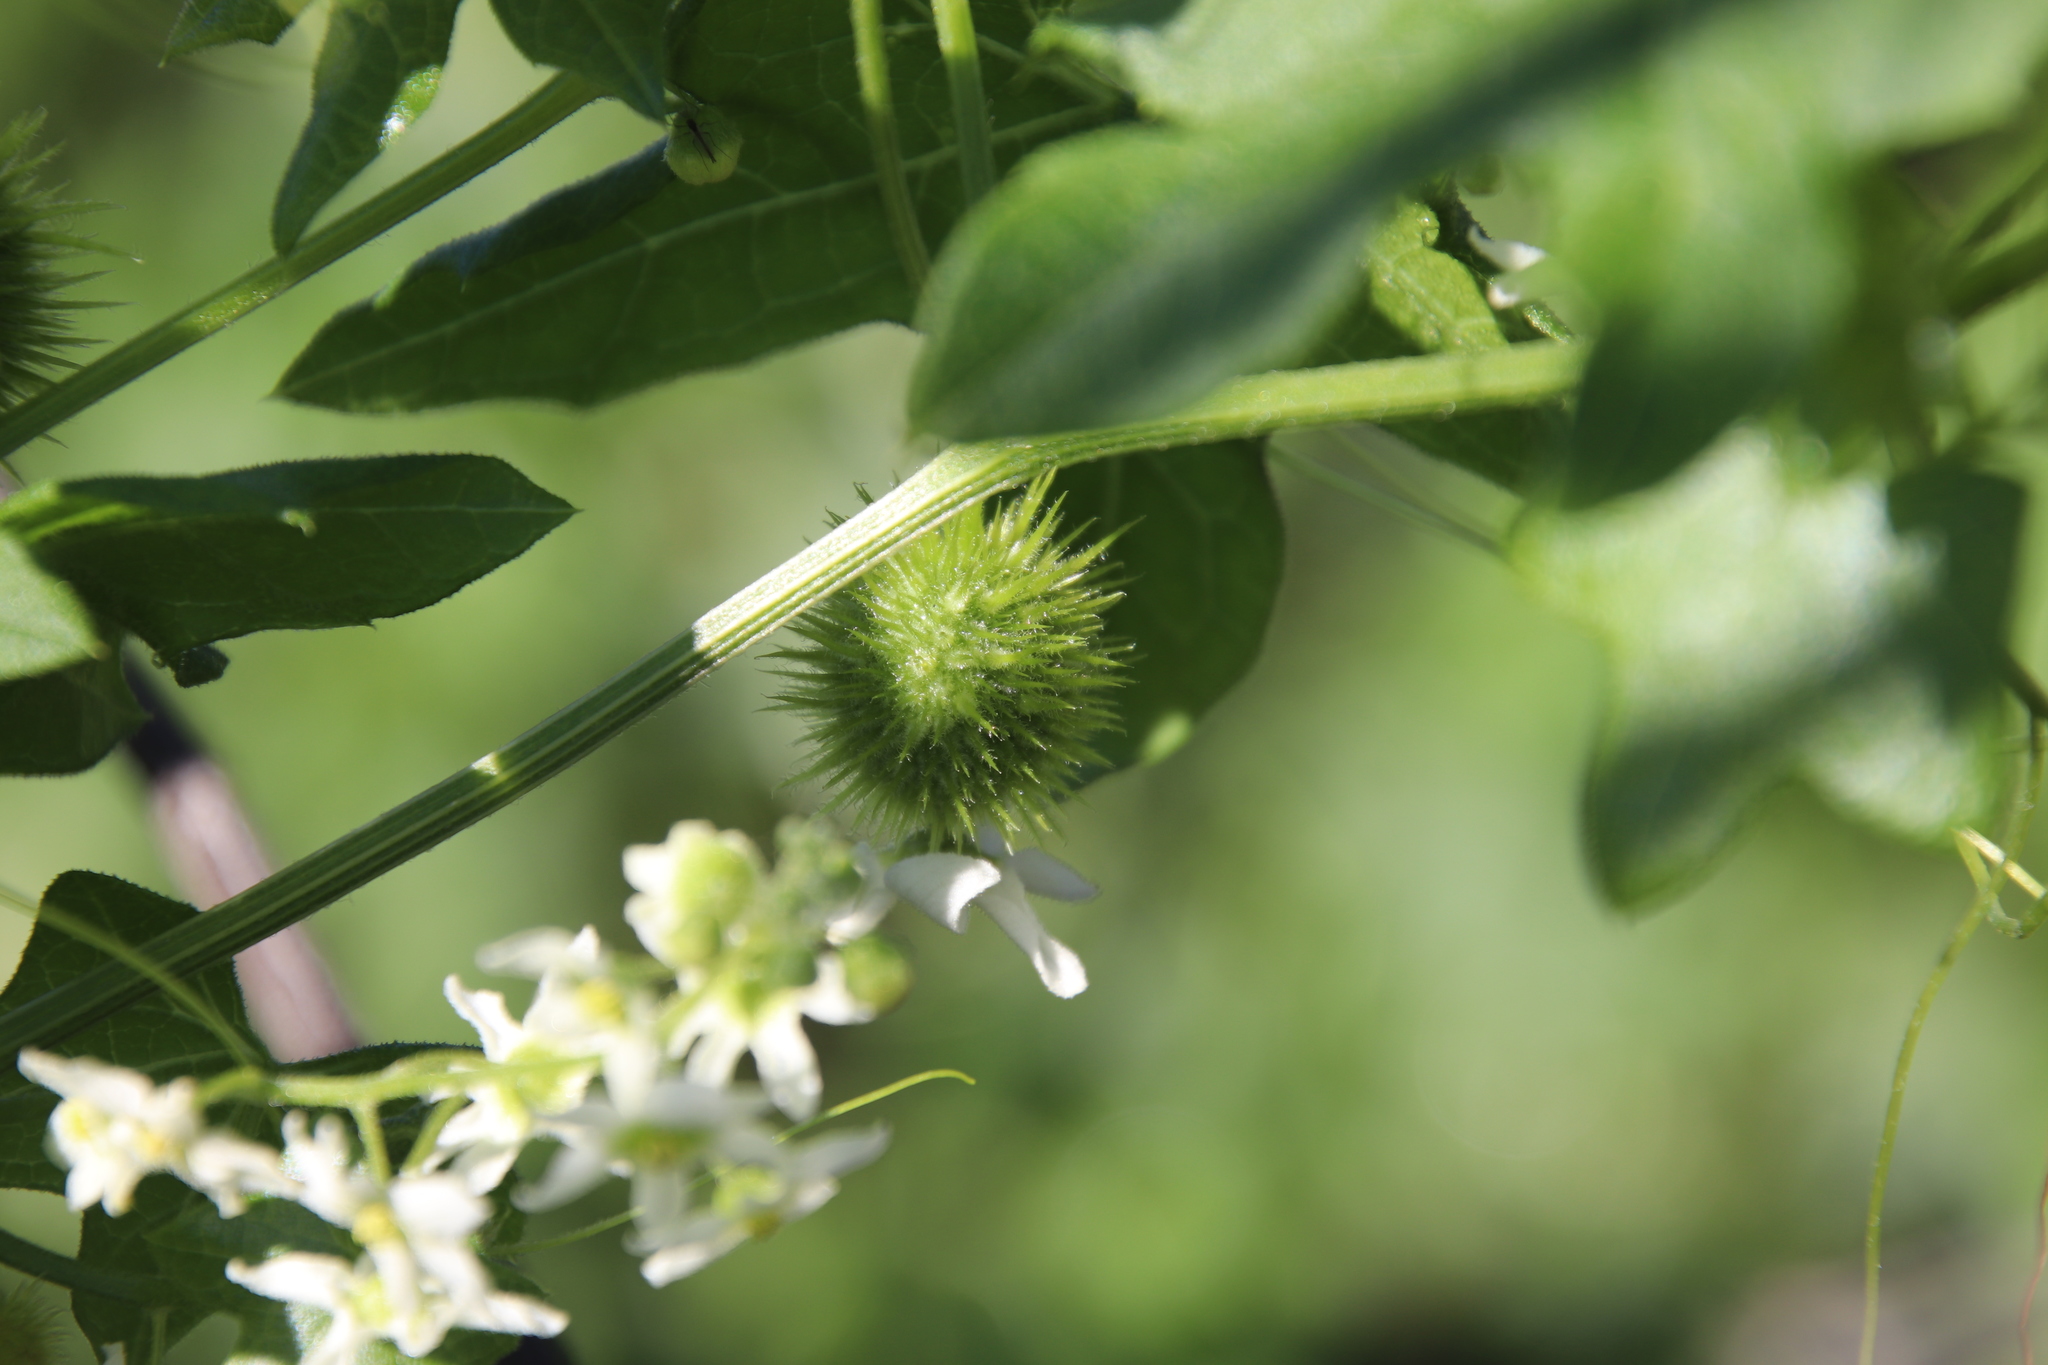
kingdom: Plantae
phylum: Tracheophyta
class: Magnoliopsida
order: Cucurbitales
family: Cucurbitaceae
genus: Marah
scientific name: Marah macrocarpa
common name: Cucamonga manroot
